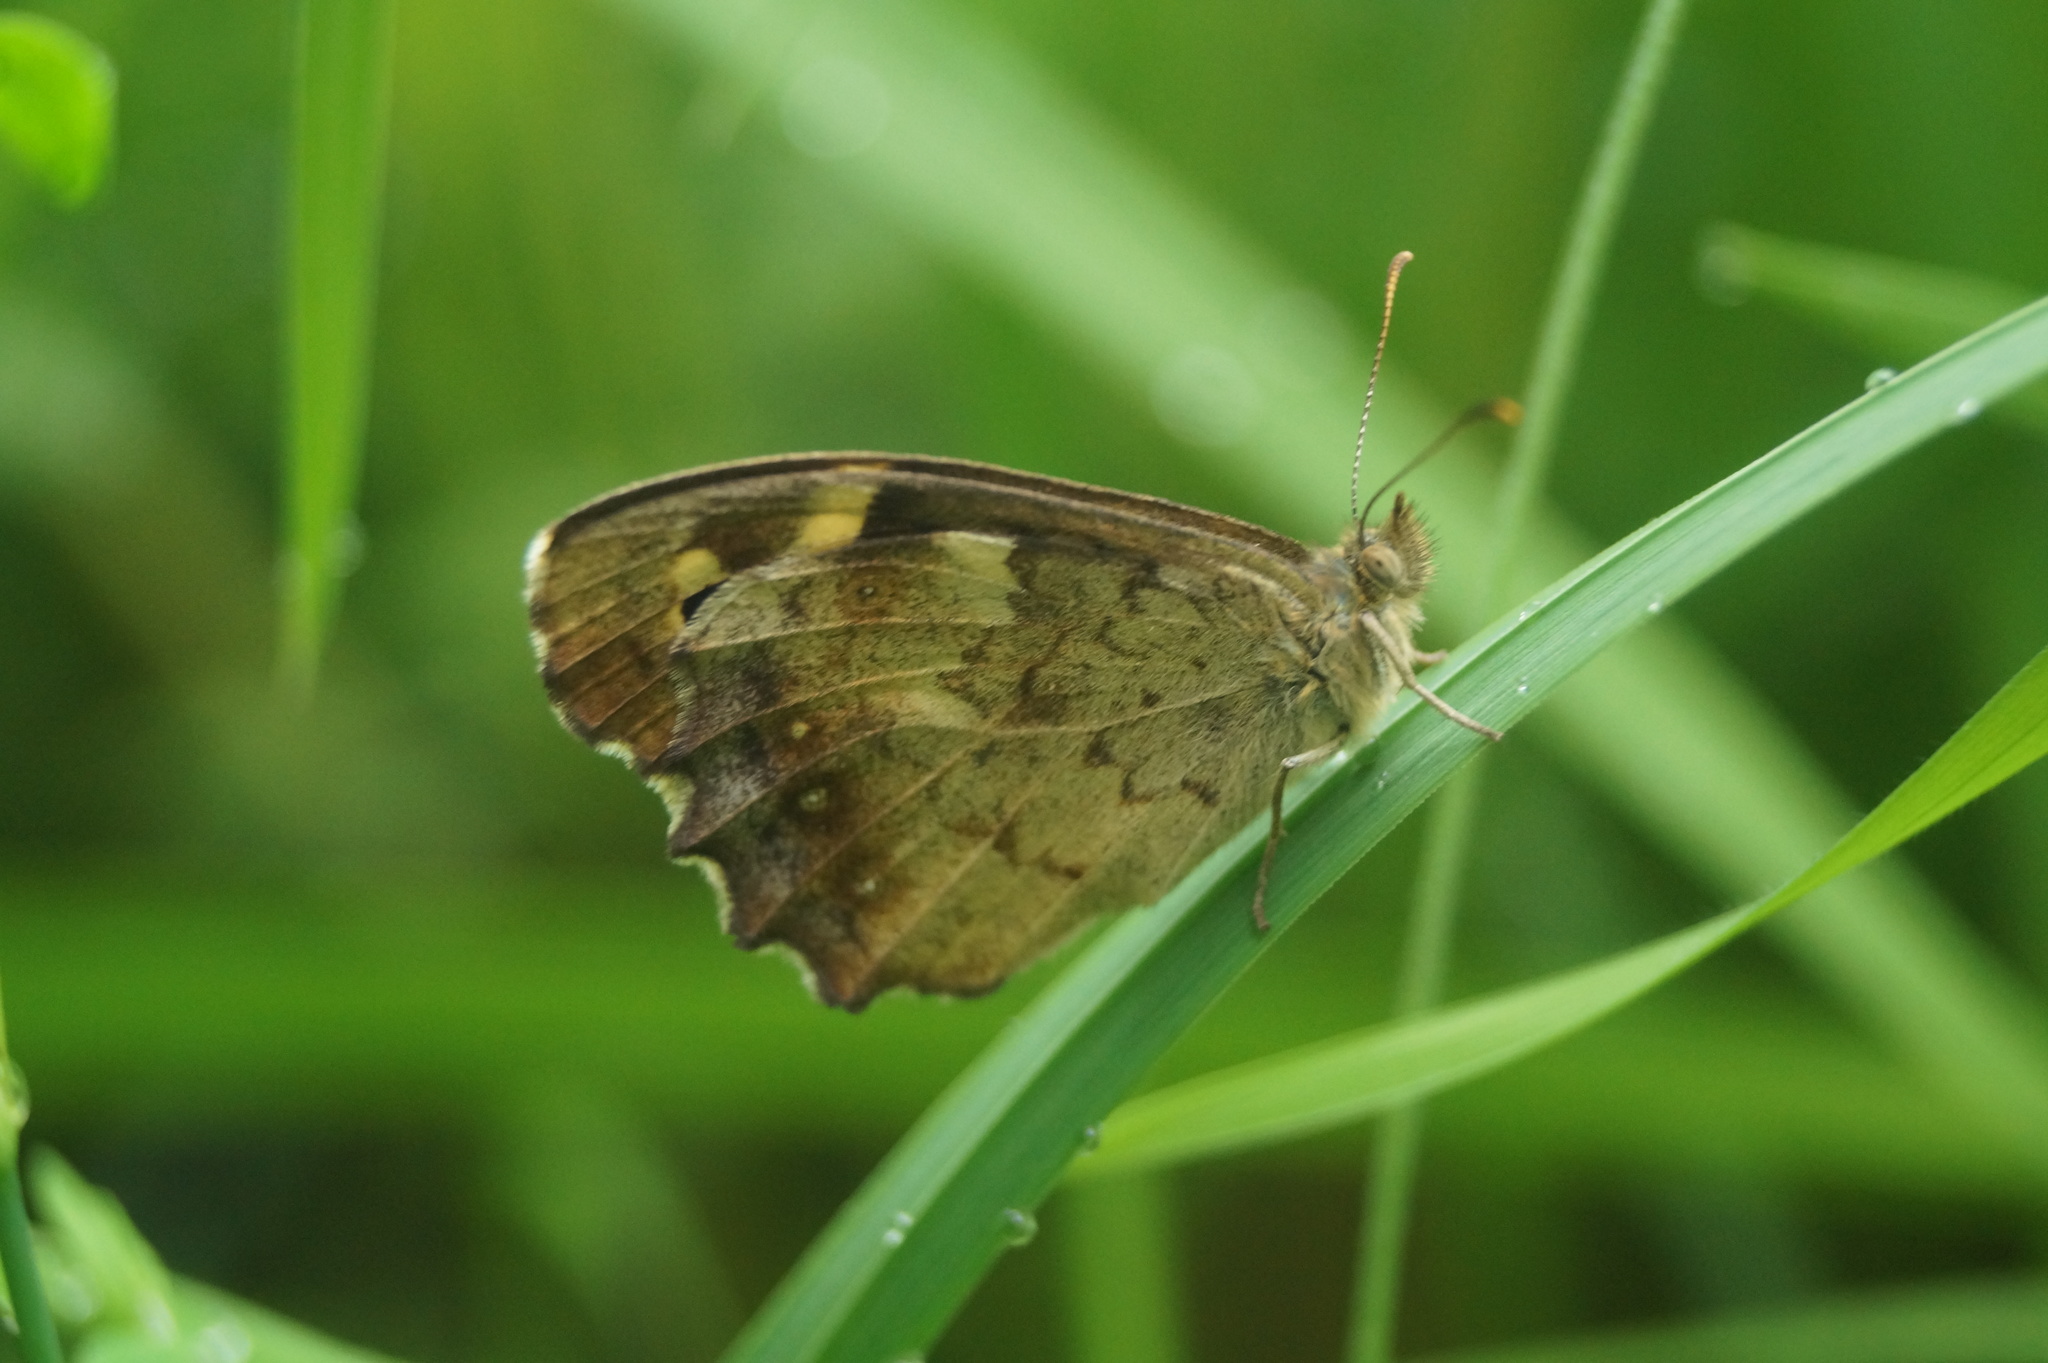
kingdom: Animalia
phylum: Arthropoda
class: Insecta
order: Lepidoptera
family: Nymphalidae
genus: Pararge
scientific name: Pararge aegeria
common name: Speckled wood
